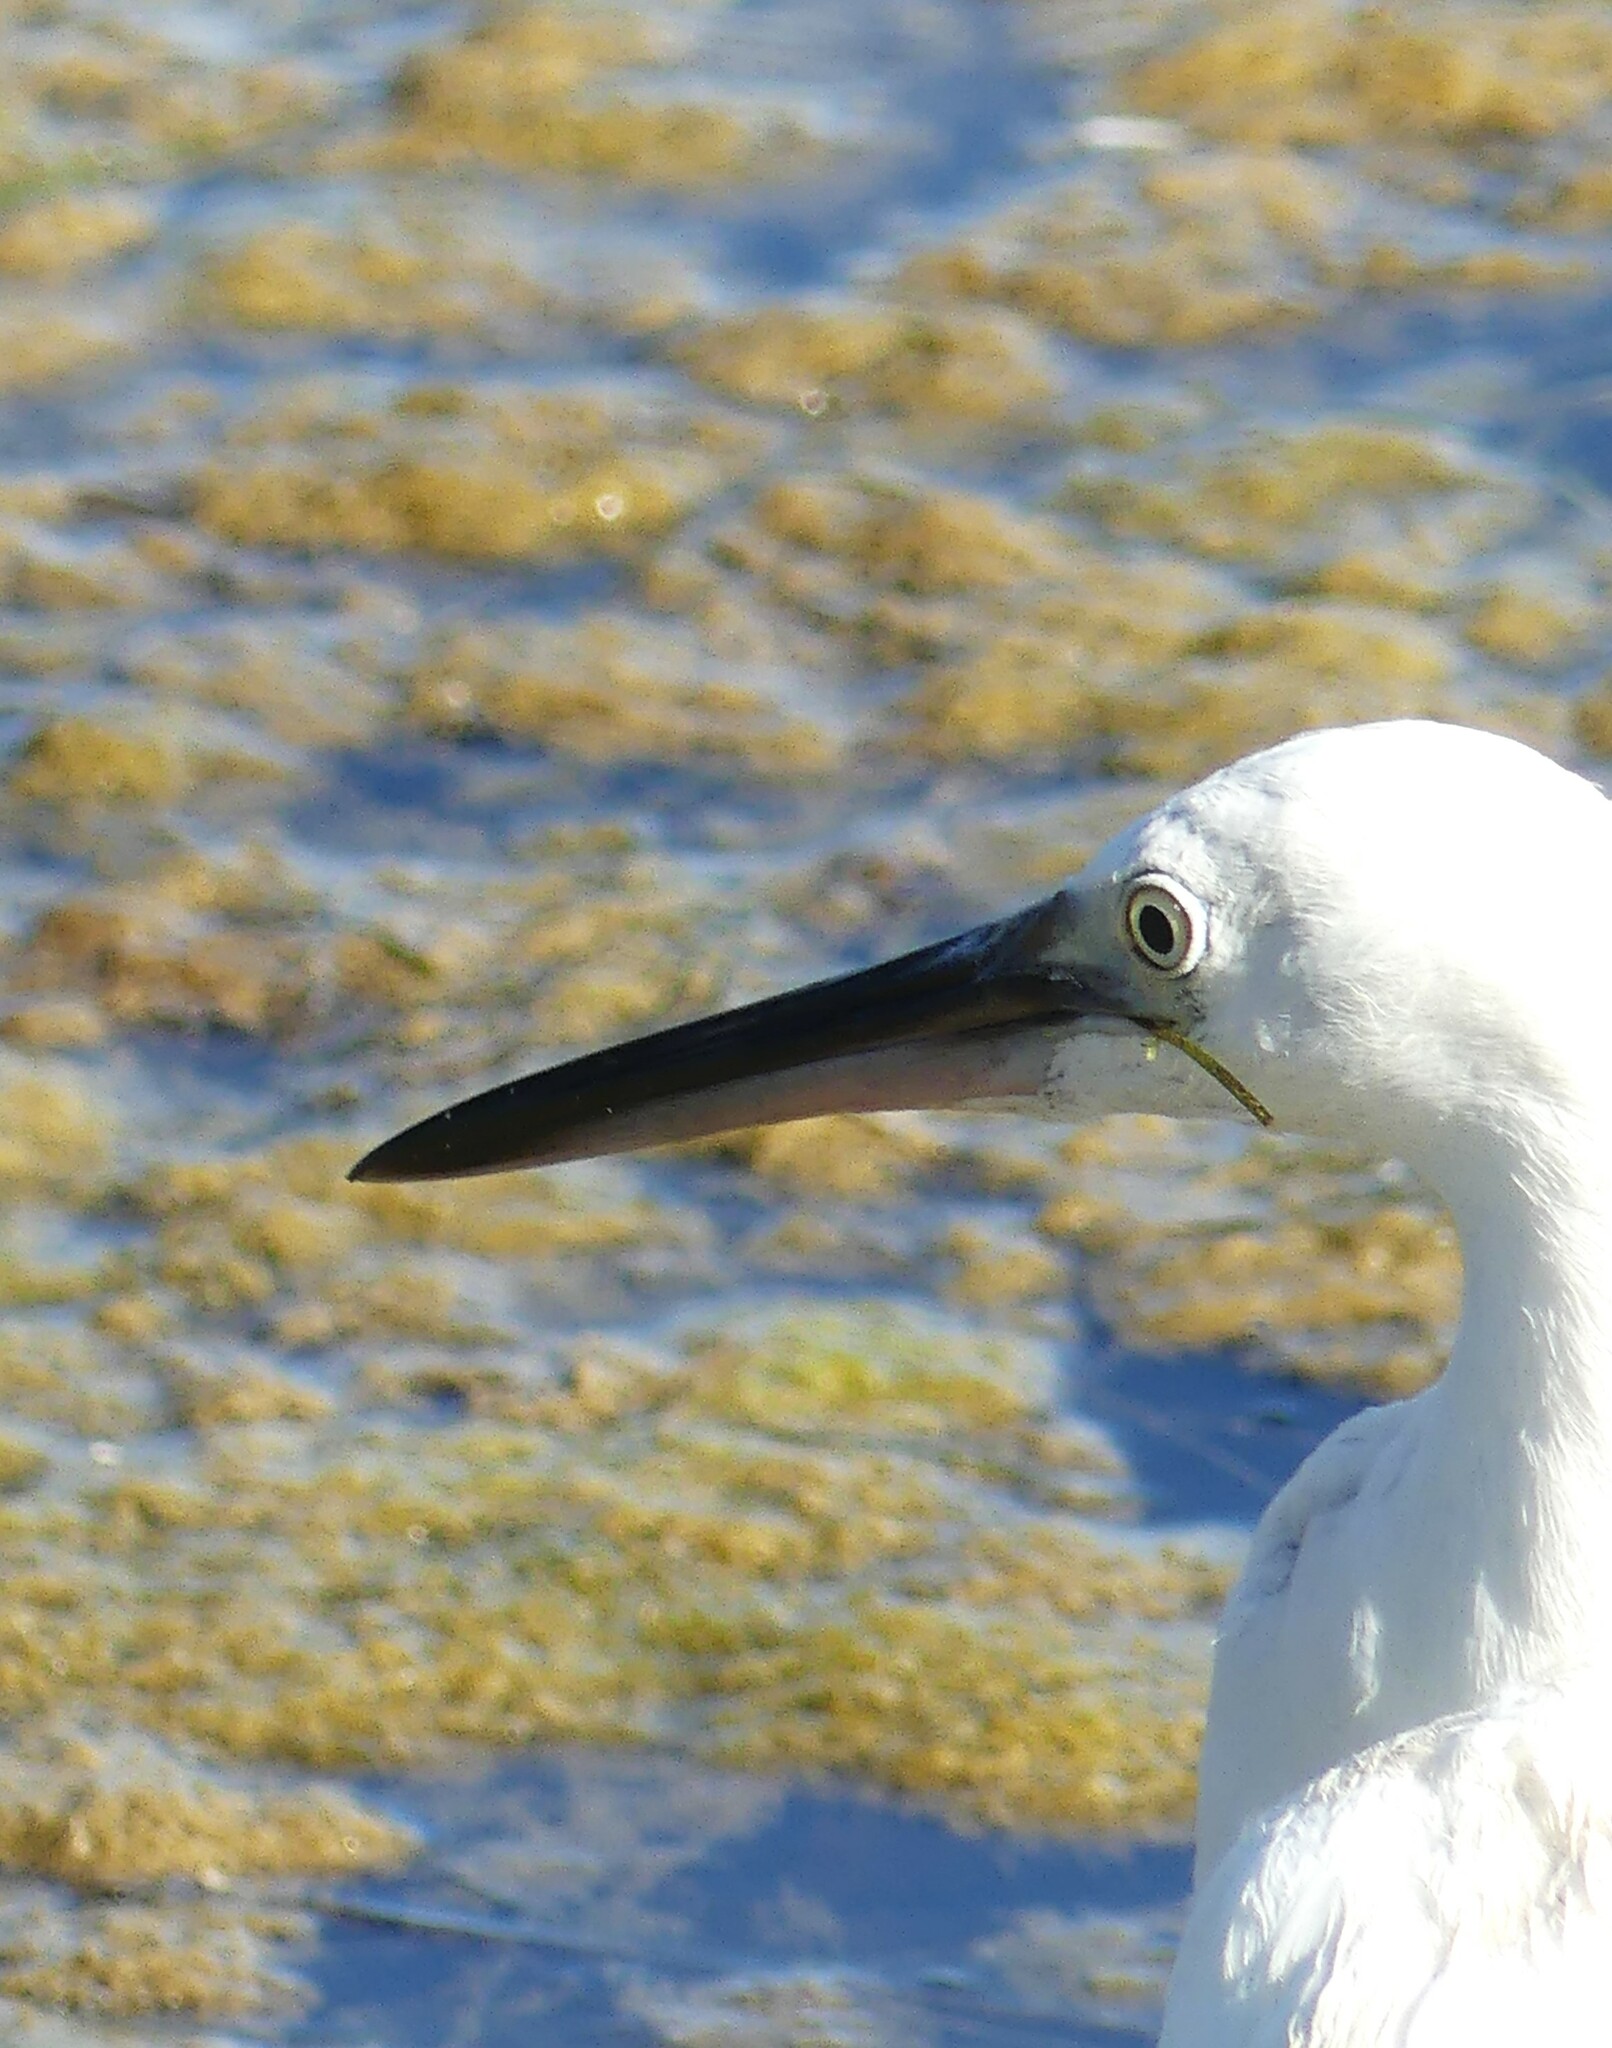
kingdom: Animalia
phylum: Chordata
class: Aves
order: Pelecaniformes
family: Ardeidae
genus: Egretta
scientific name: Egretta garzetta
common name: Little egret
